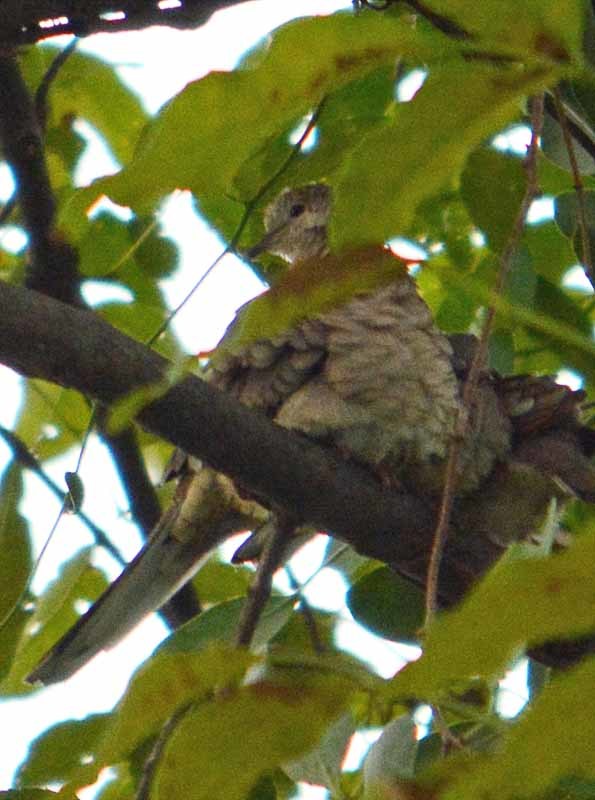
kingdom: Animalia
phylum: Chordata
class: Aves
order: Columbiformes
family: Columbidae
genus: Columbina
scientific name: Columbina inca
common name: Inca dove
